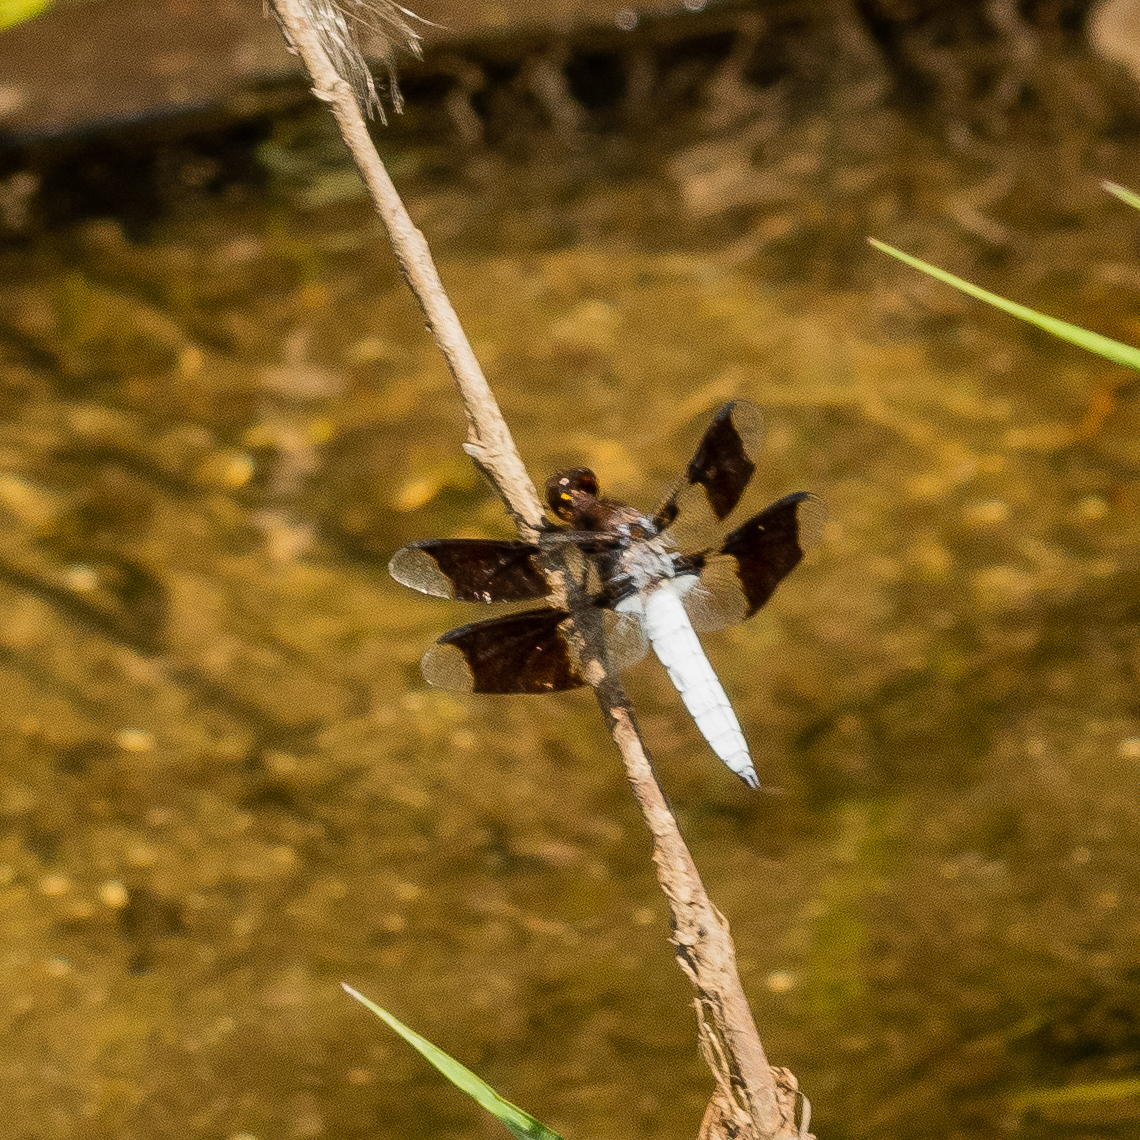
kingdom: Animalia
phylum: Arthropoda
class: Insecta
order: Odonata
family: Libellulidae
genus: Plathemis
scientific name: Plathemis lydia
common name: Common whitetail
